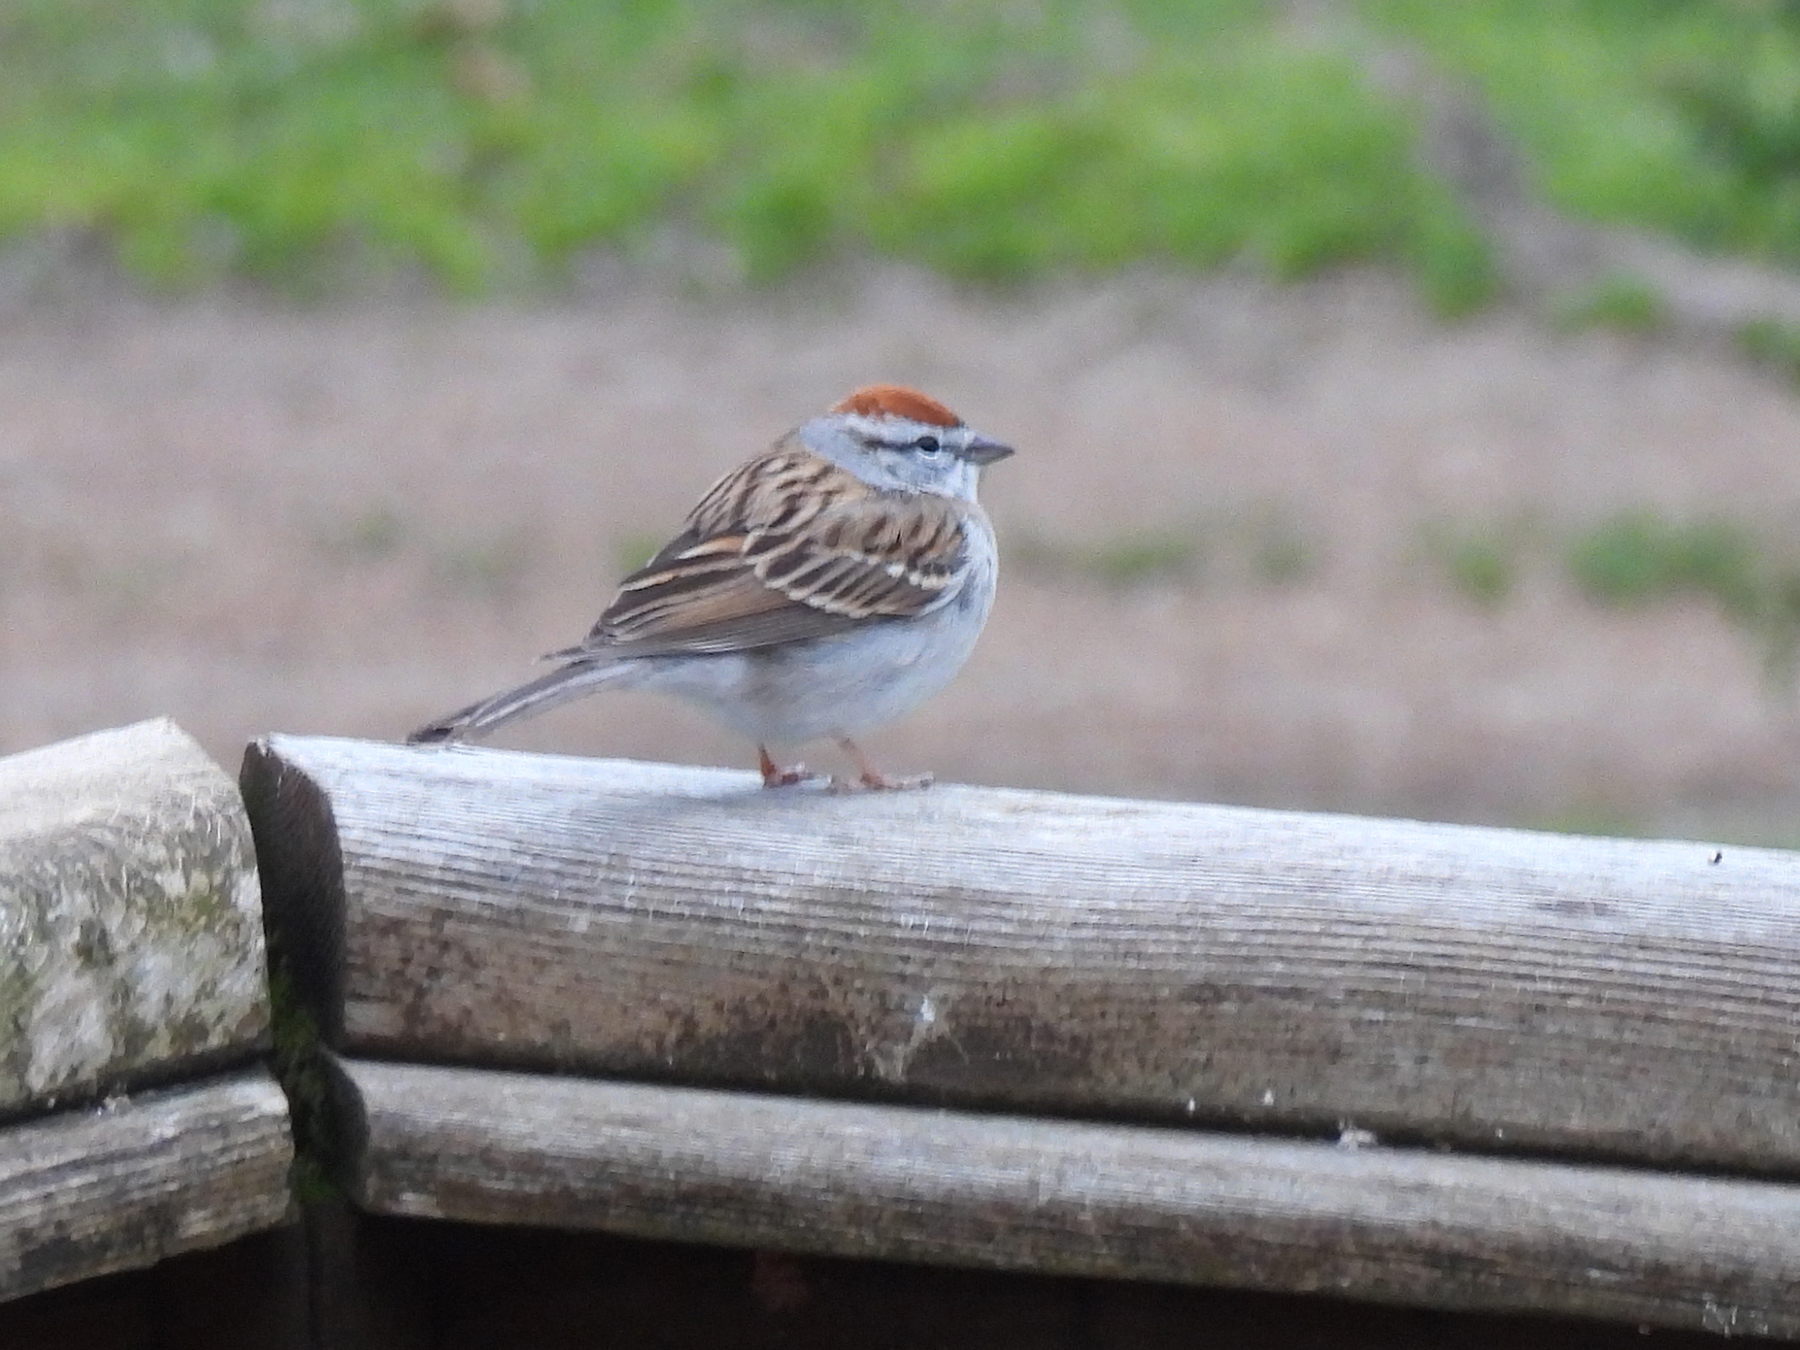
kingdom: Animalia
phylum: Chordata
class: Aves
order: Passeriformes
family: Passerellidae
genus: Spizella
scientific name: Spizella passerina
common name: Chipping sparrow
